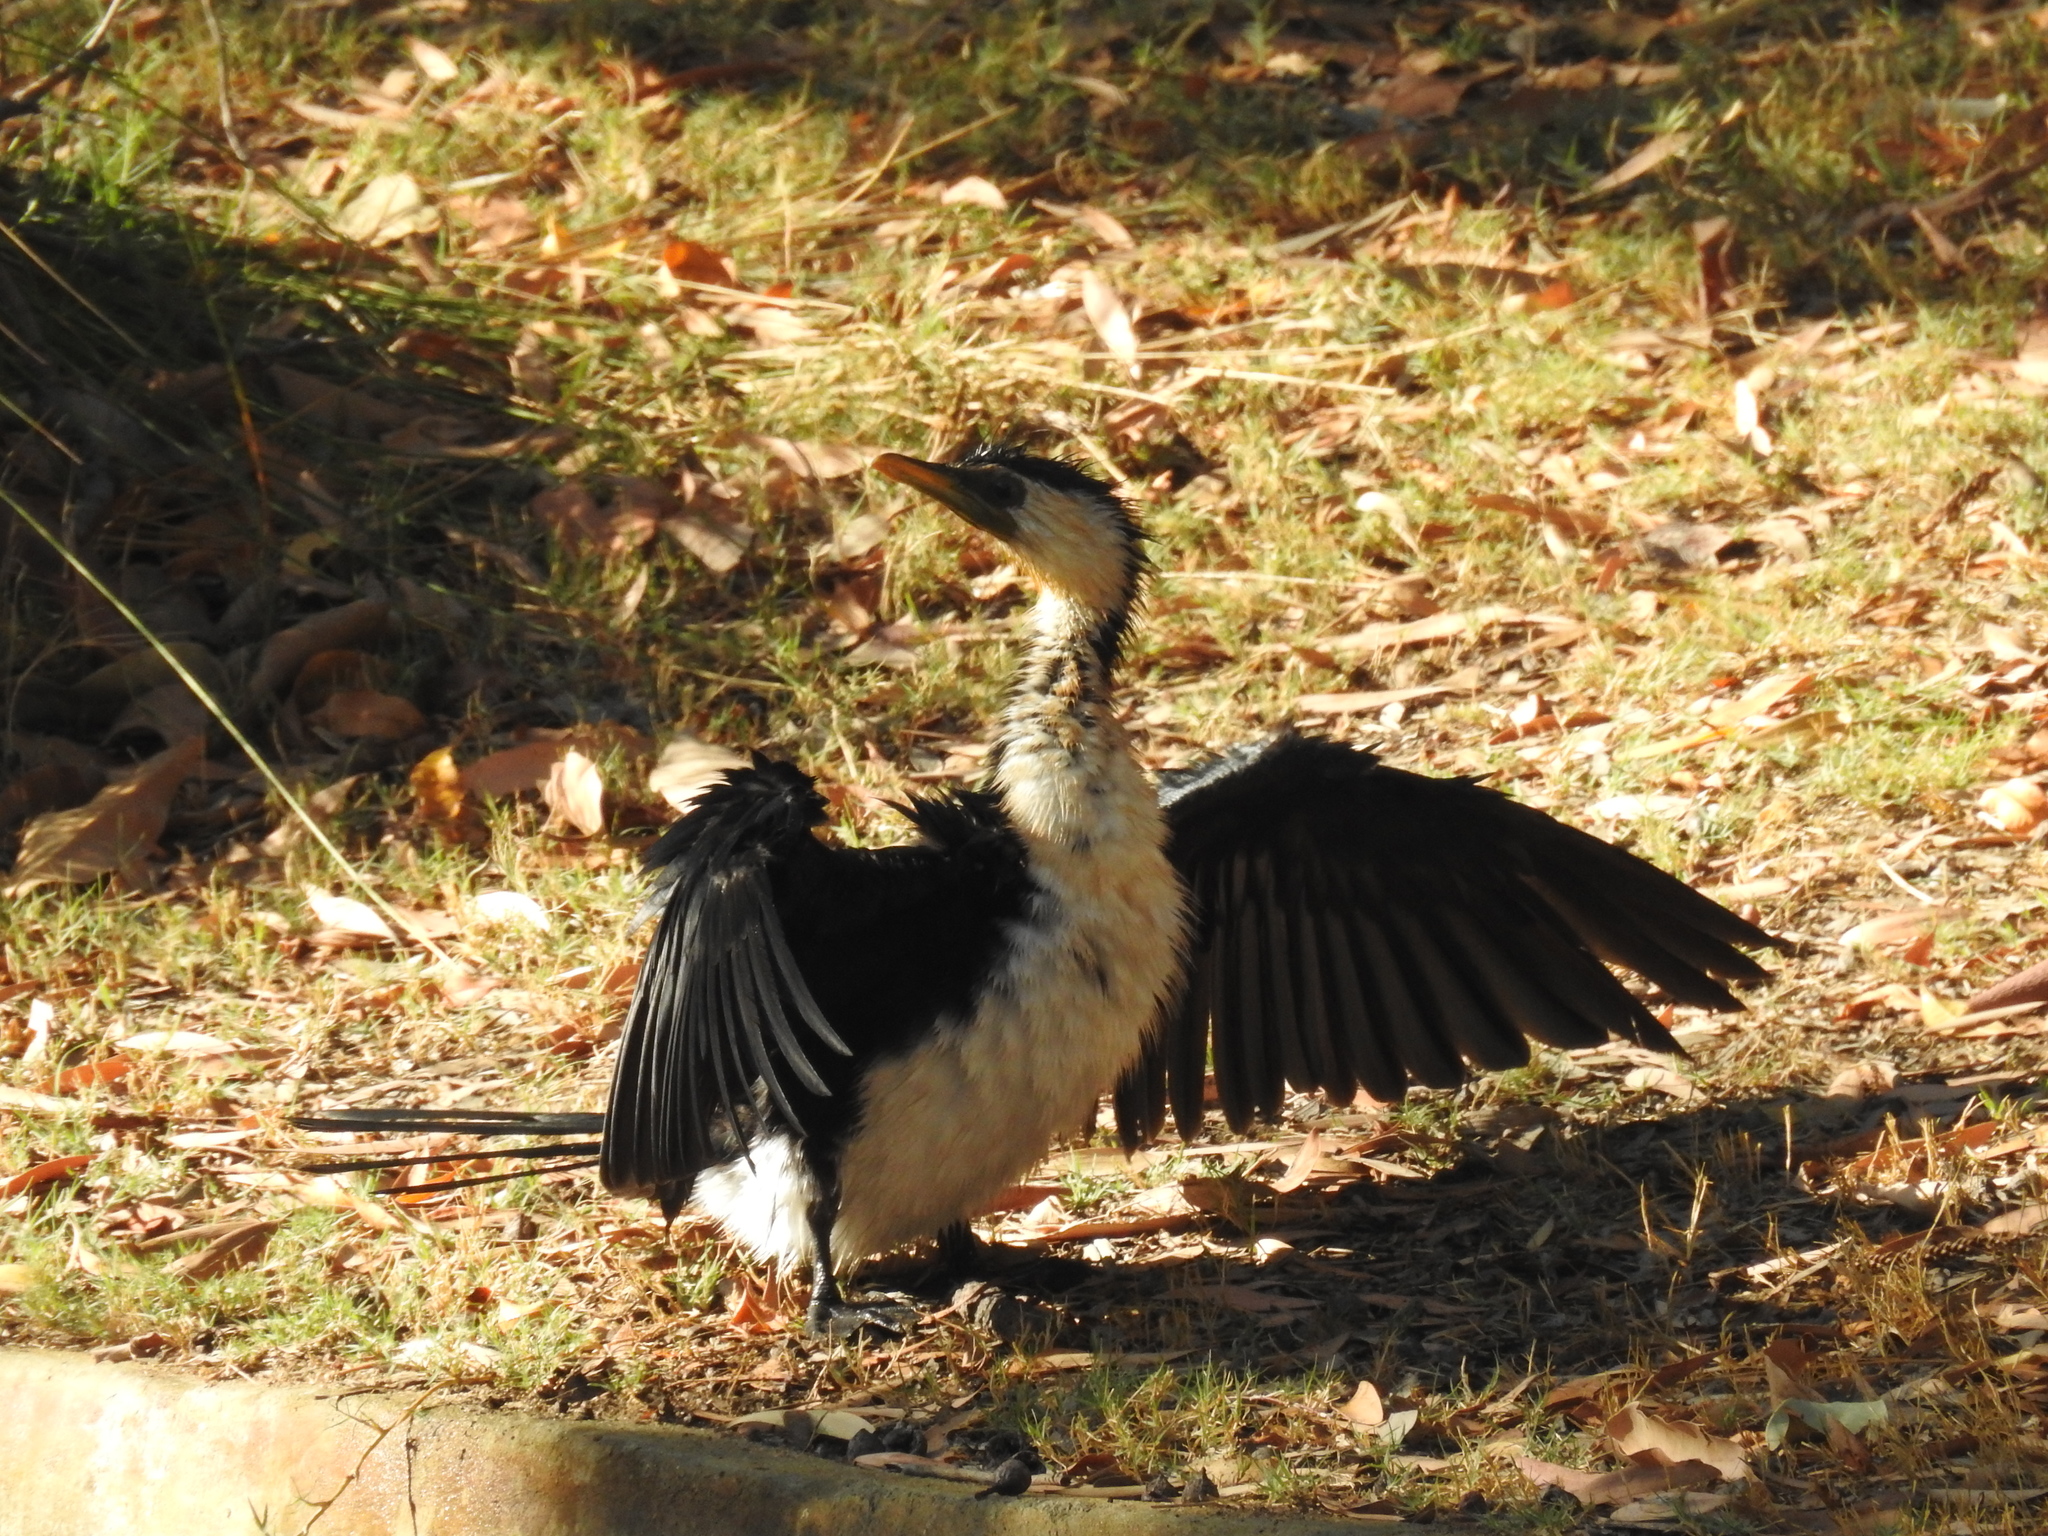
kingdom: Animalia
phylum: Chordata
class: Aves
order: Suliformes
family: Phalacrocoracidae
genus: Microcarbo
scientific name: Microcarbo melanoleucos
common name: Little pied cormorant
